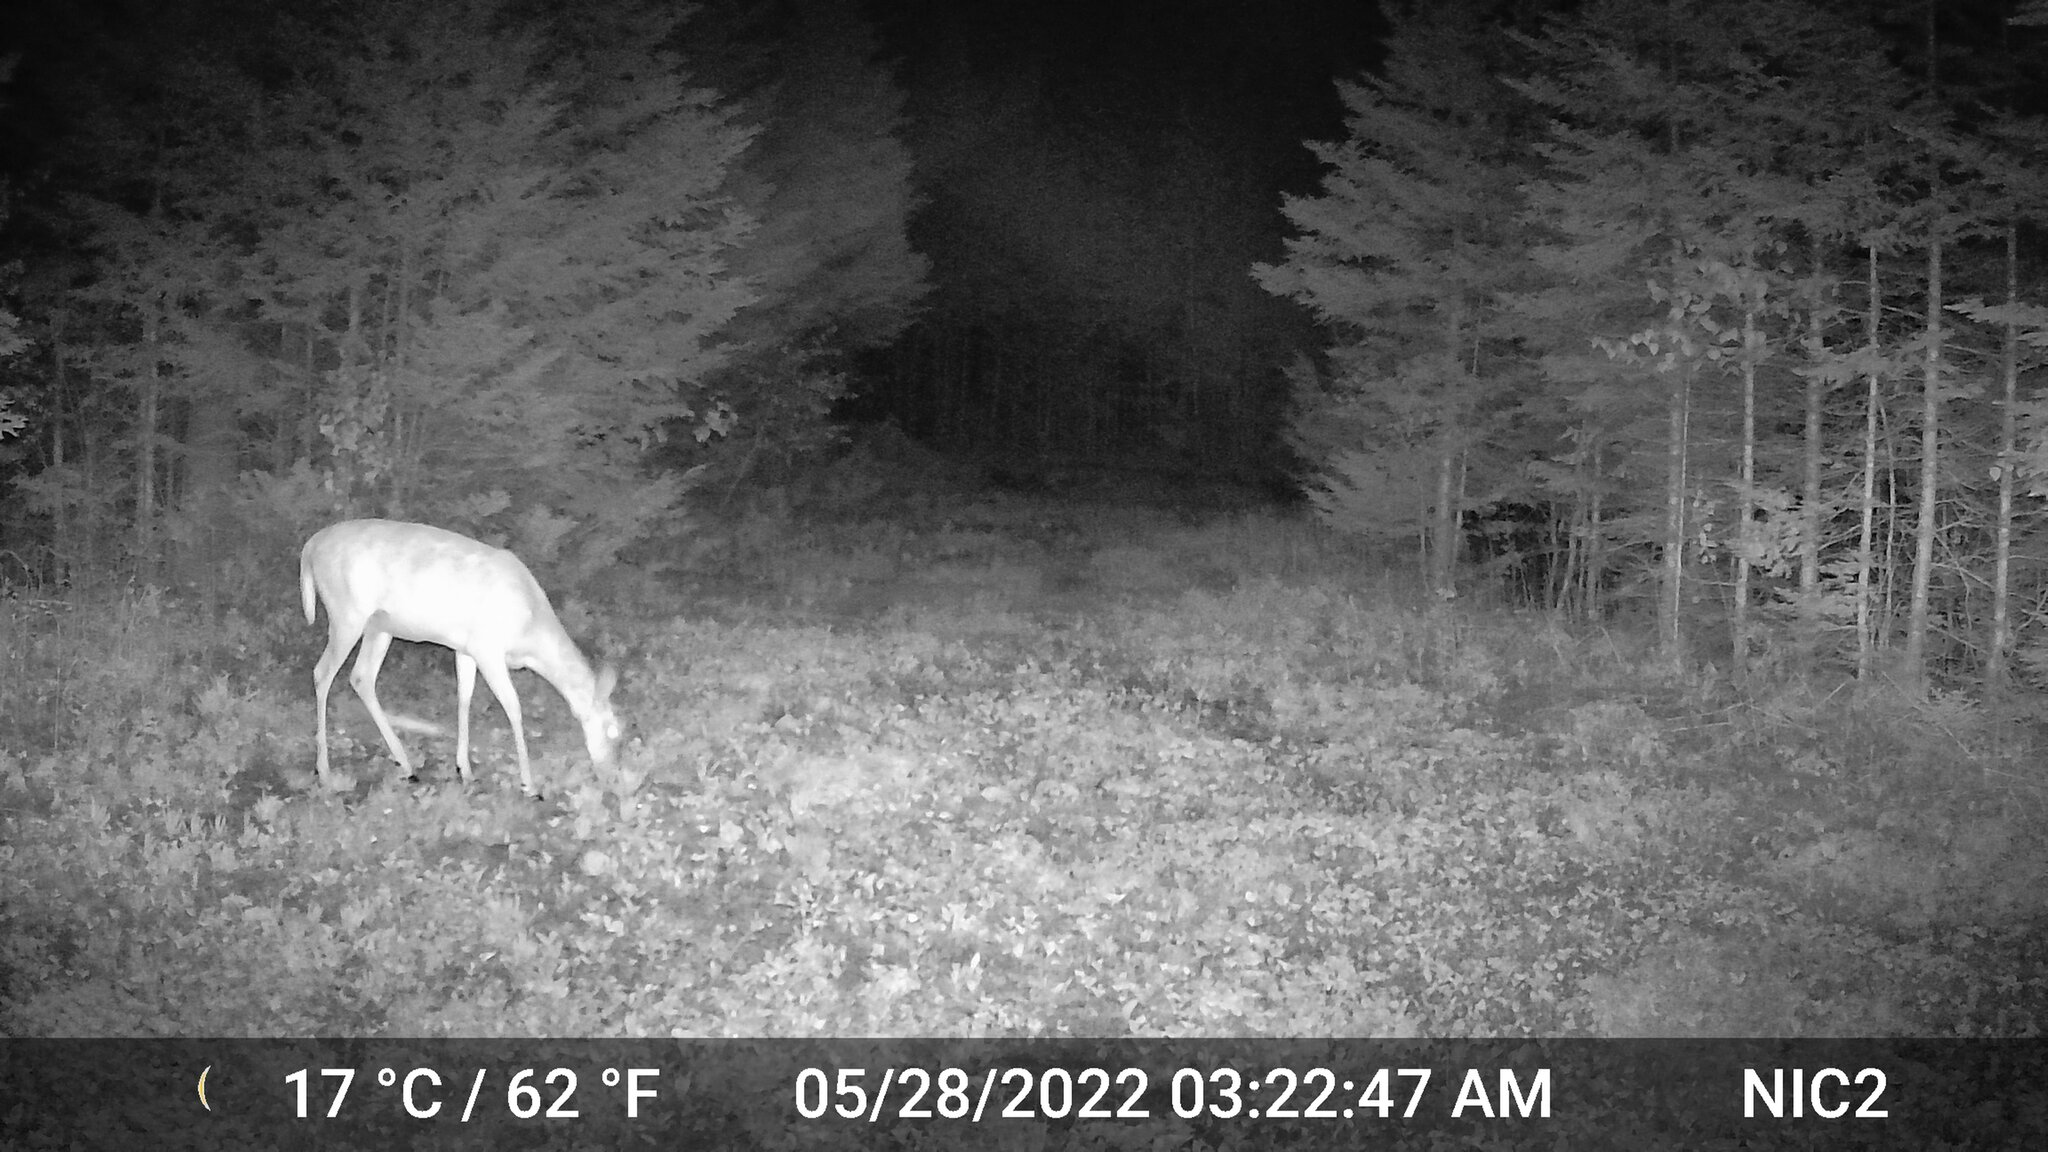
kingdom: Animalia
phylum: Chordata
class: Mammalia
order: Artiodactyla
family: Cervidae
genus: Odocoileus
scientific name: Odocoileus virginianus
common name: White-tailed deer
